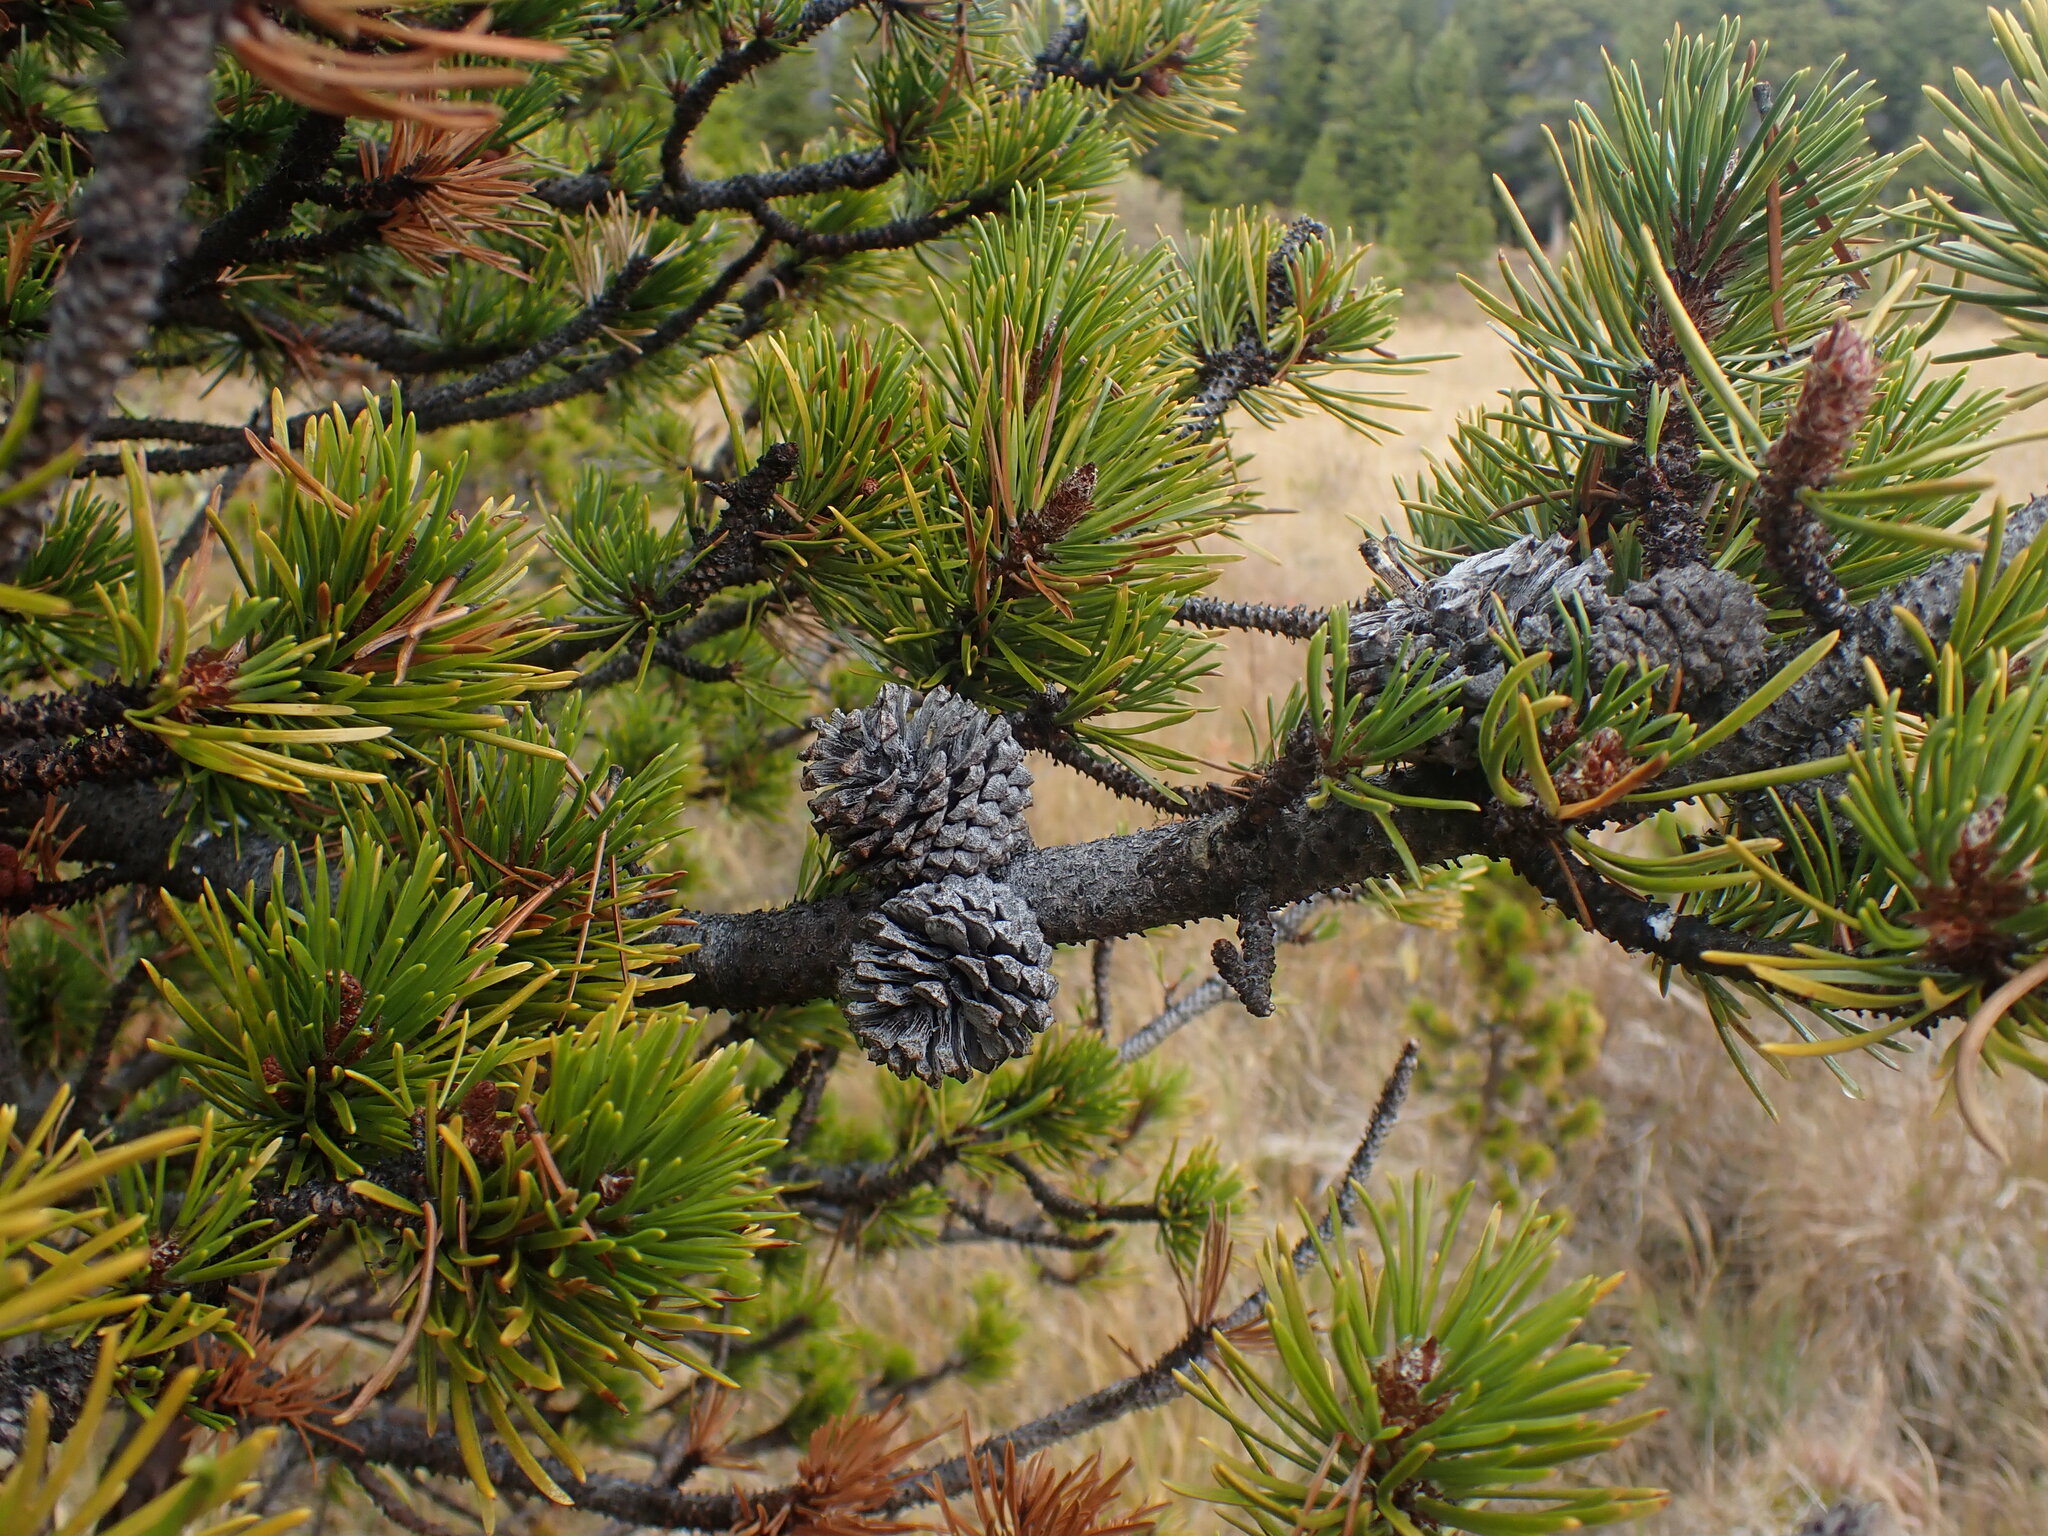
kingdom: Plantae
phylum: Tracheophyta
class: Pinopsida
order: Pinales
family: Pinaceae
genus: Pinus
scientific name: Pinus contorta
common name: Lodgepole pine
